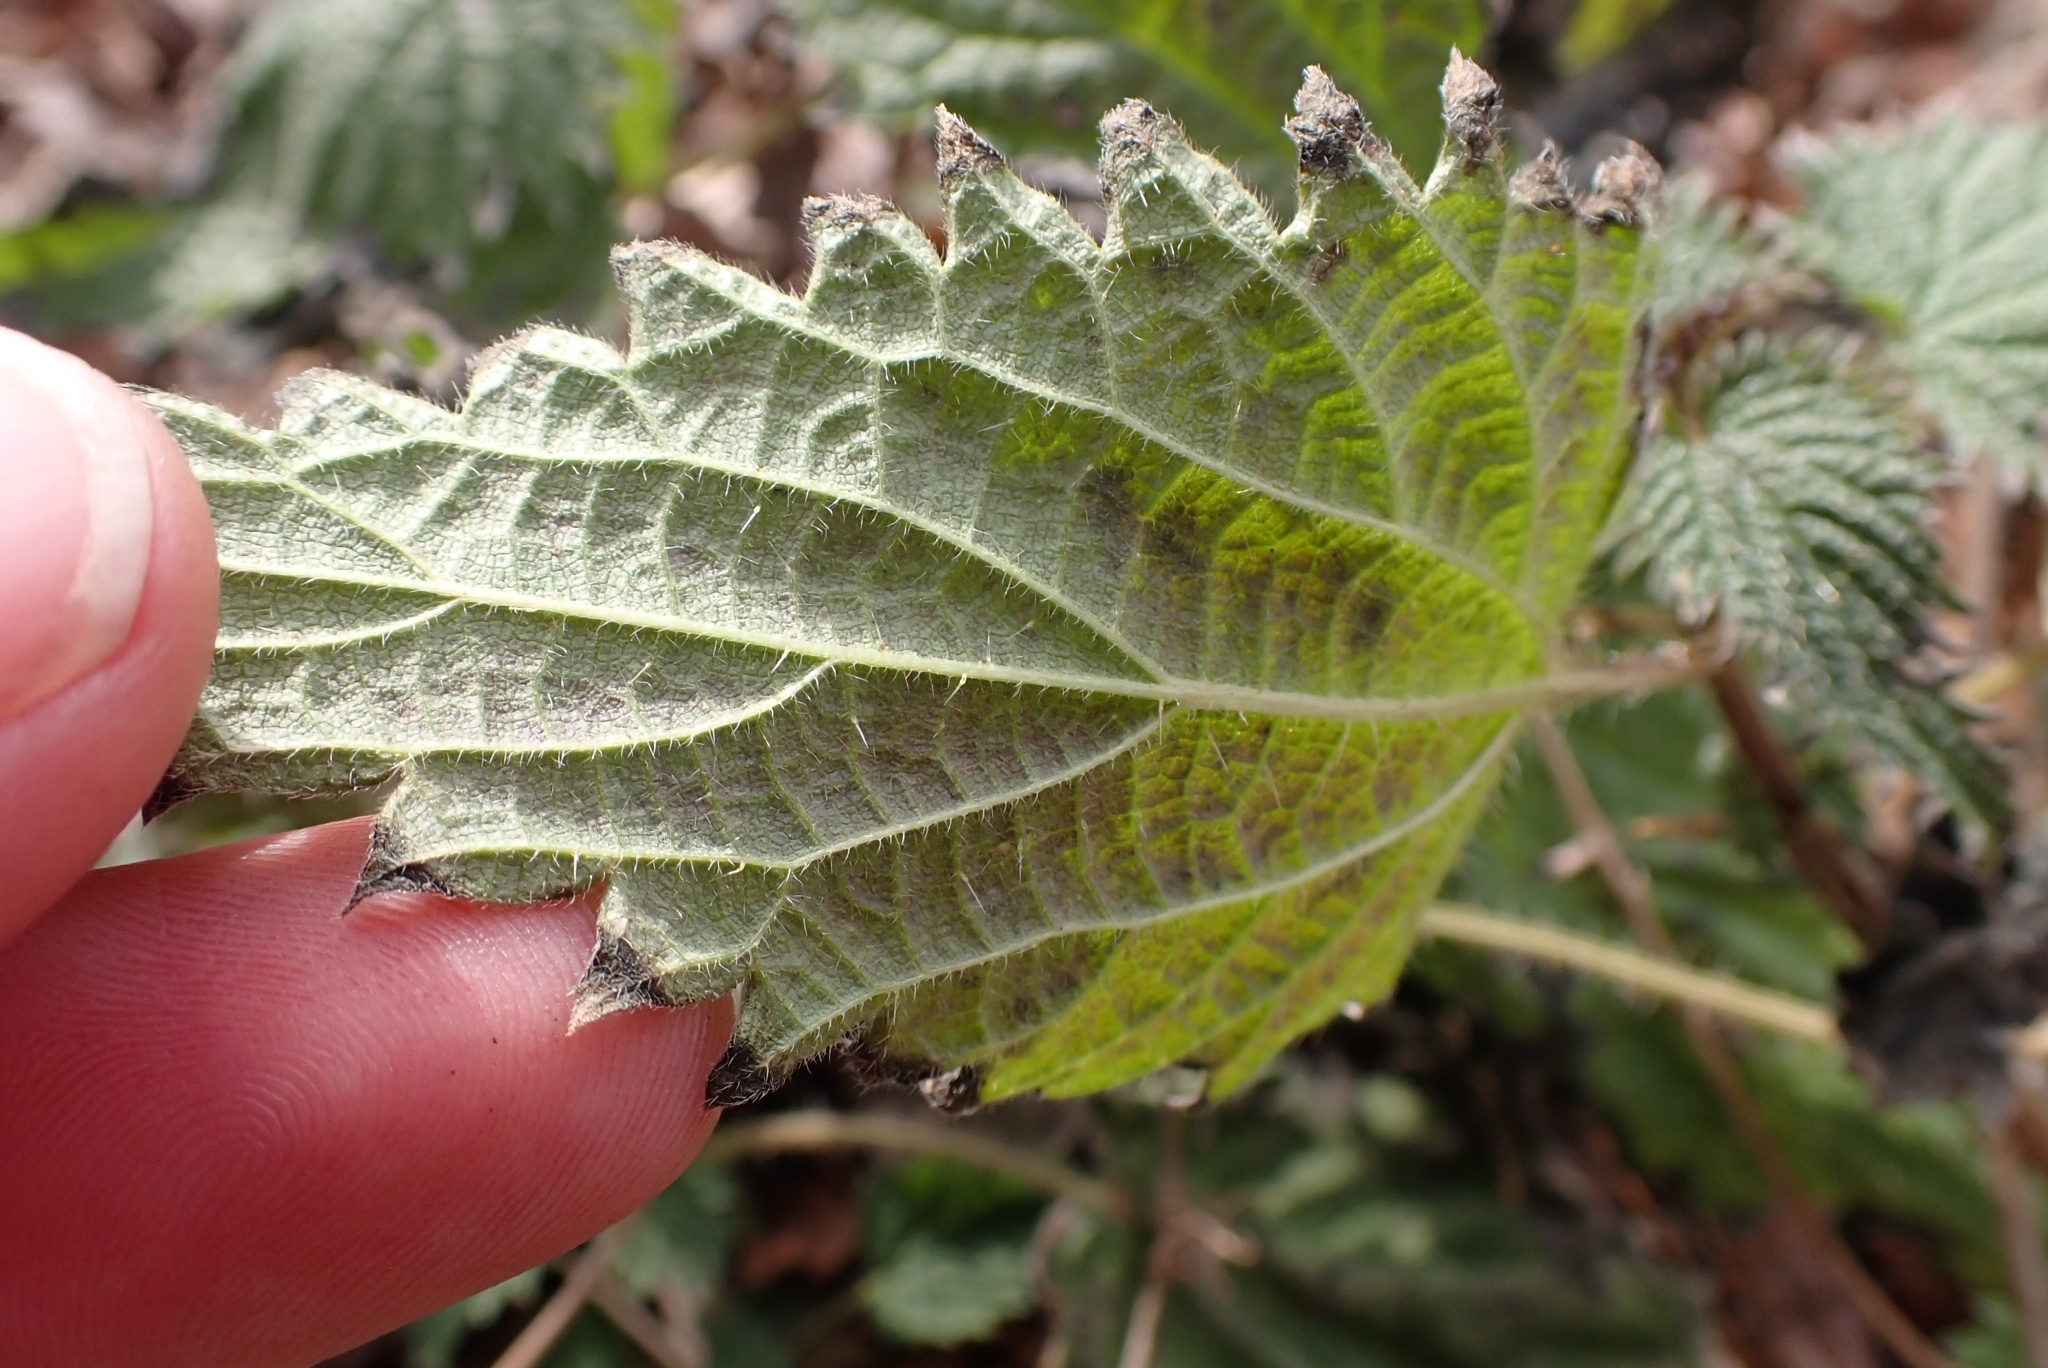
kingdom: Plantae
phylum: Tracheophyta
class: Magnoliopsida
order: Rosales
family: Urticaceae
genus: Urtica
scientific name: Urtica dioica
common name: Common nettle
